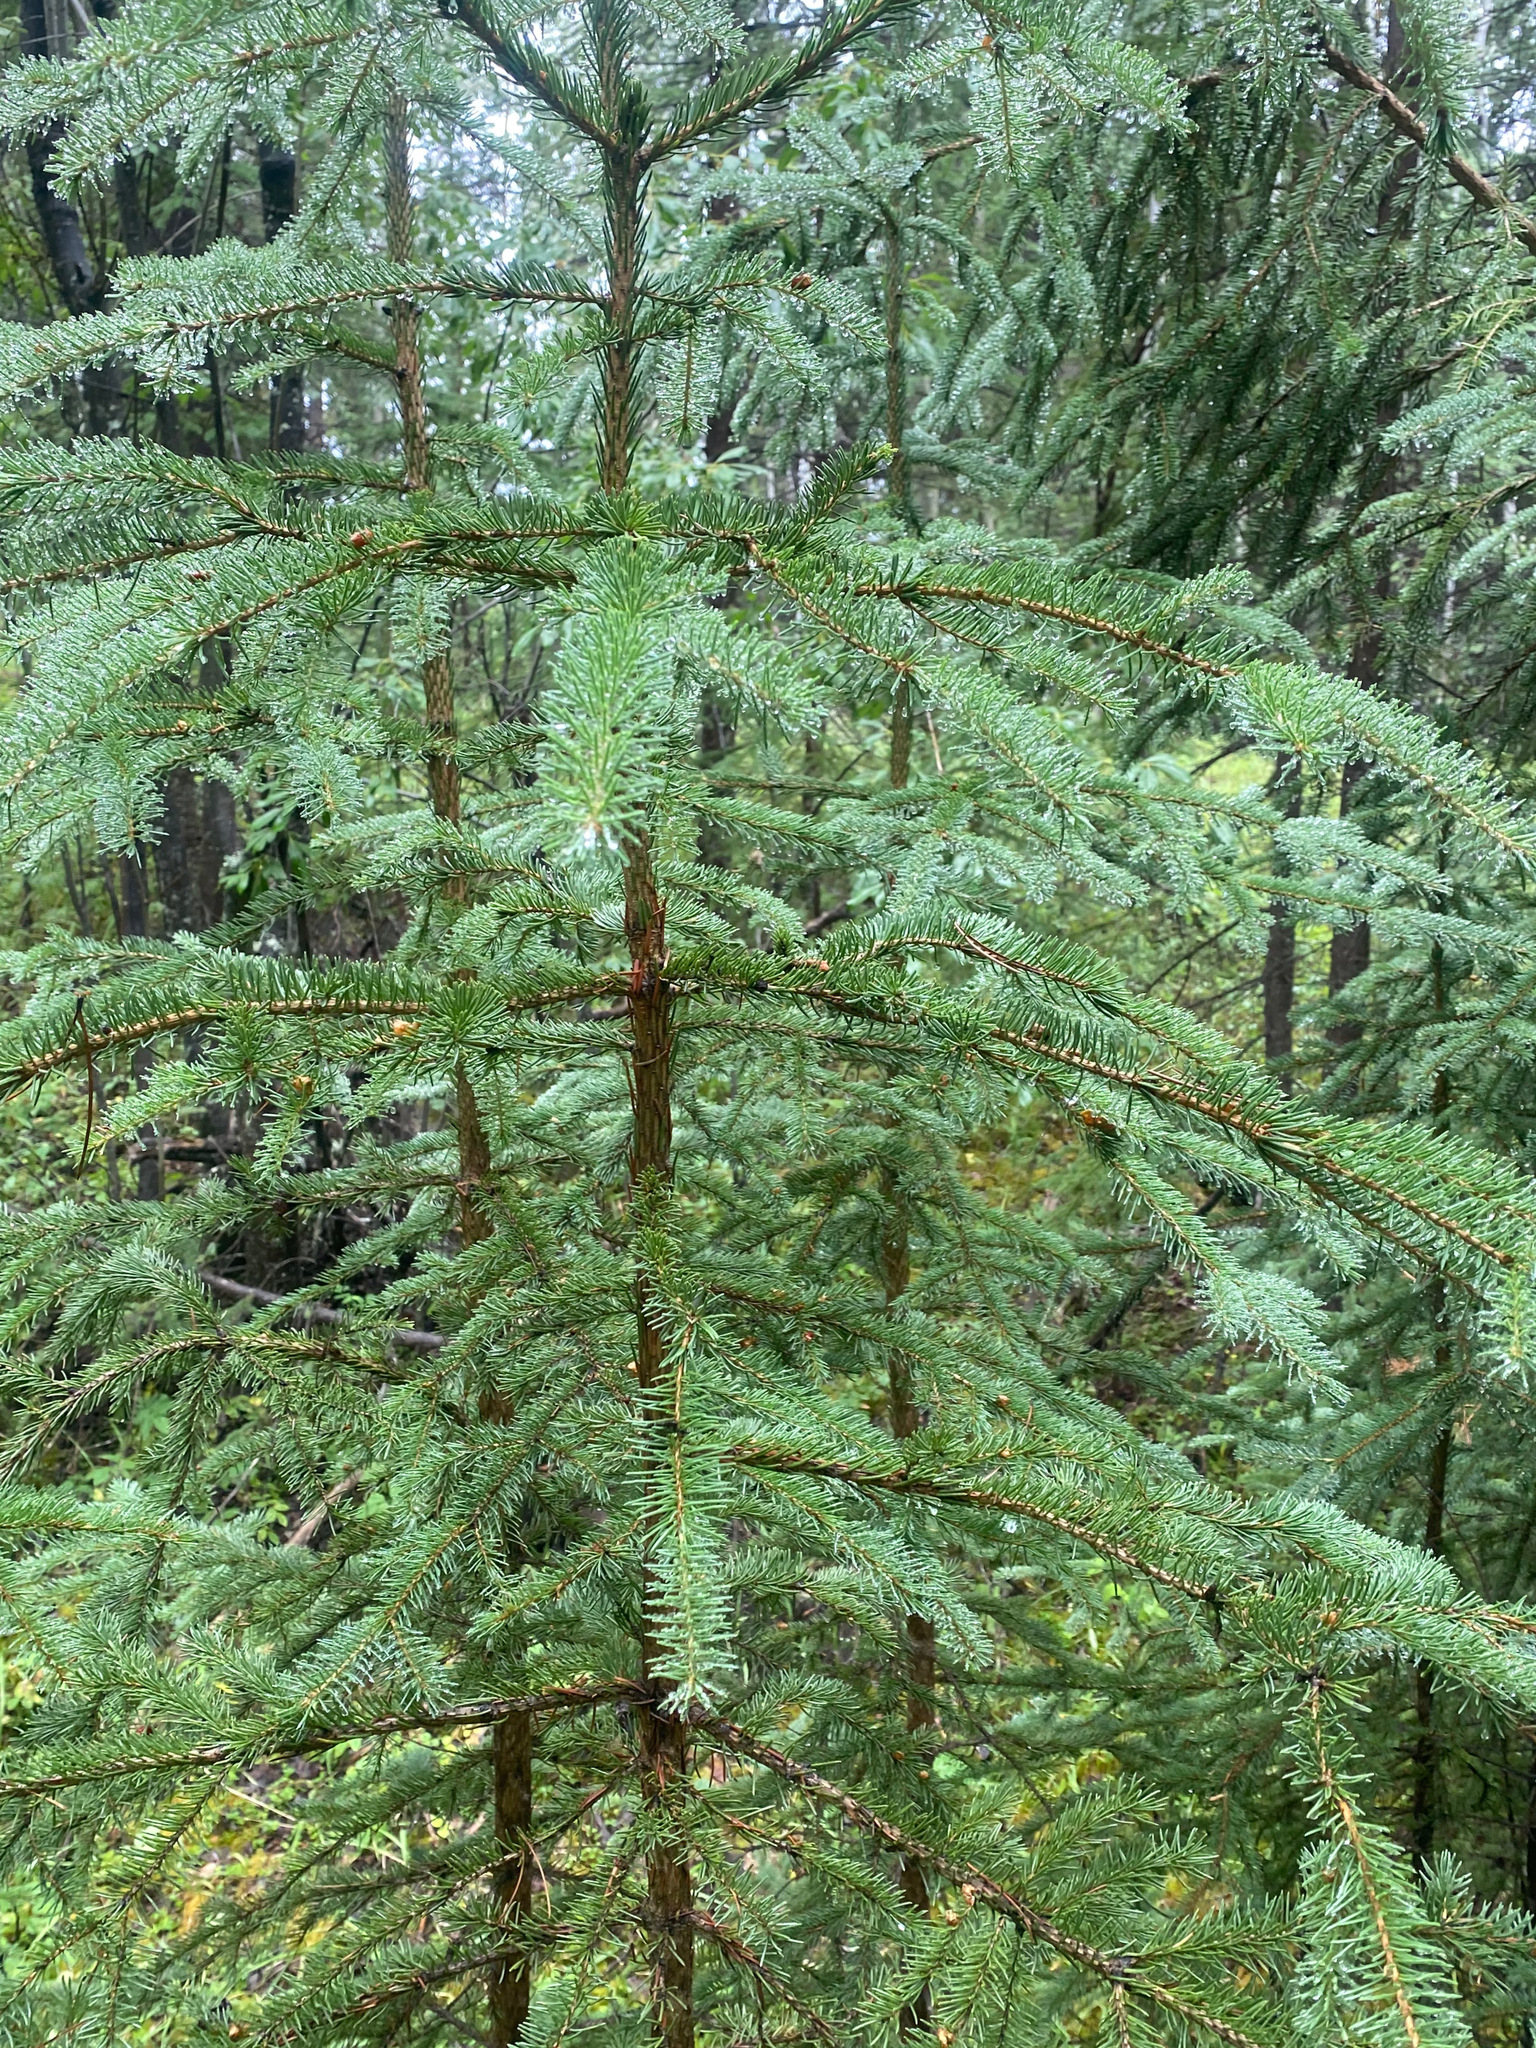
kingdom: Plantae
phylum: Tracheophyta
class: Pinopsida
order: Pinales
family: Pinaceae
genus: Picea
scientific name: Picea
